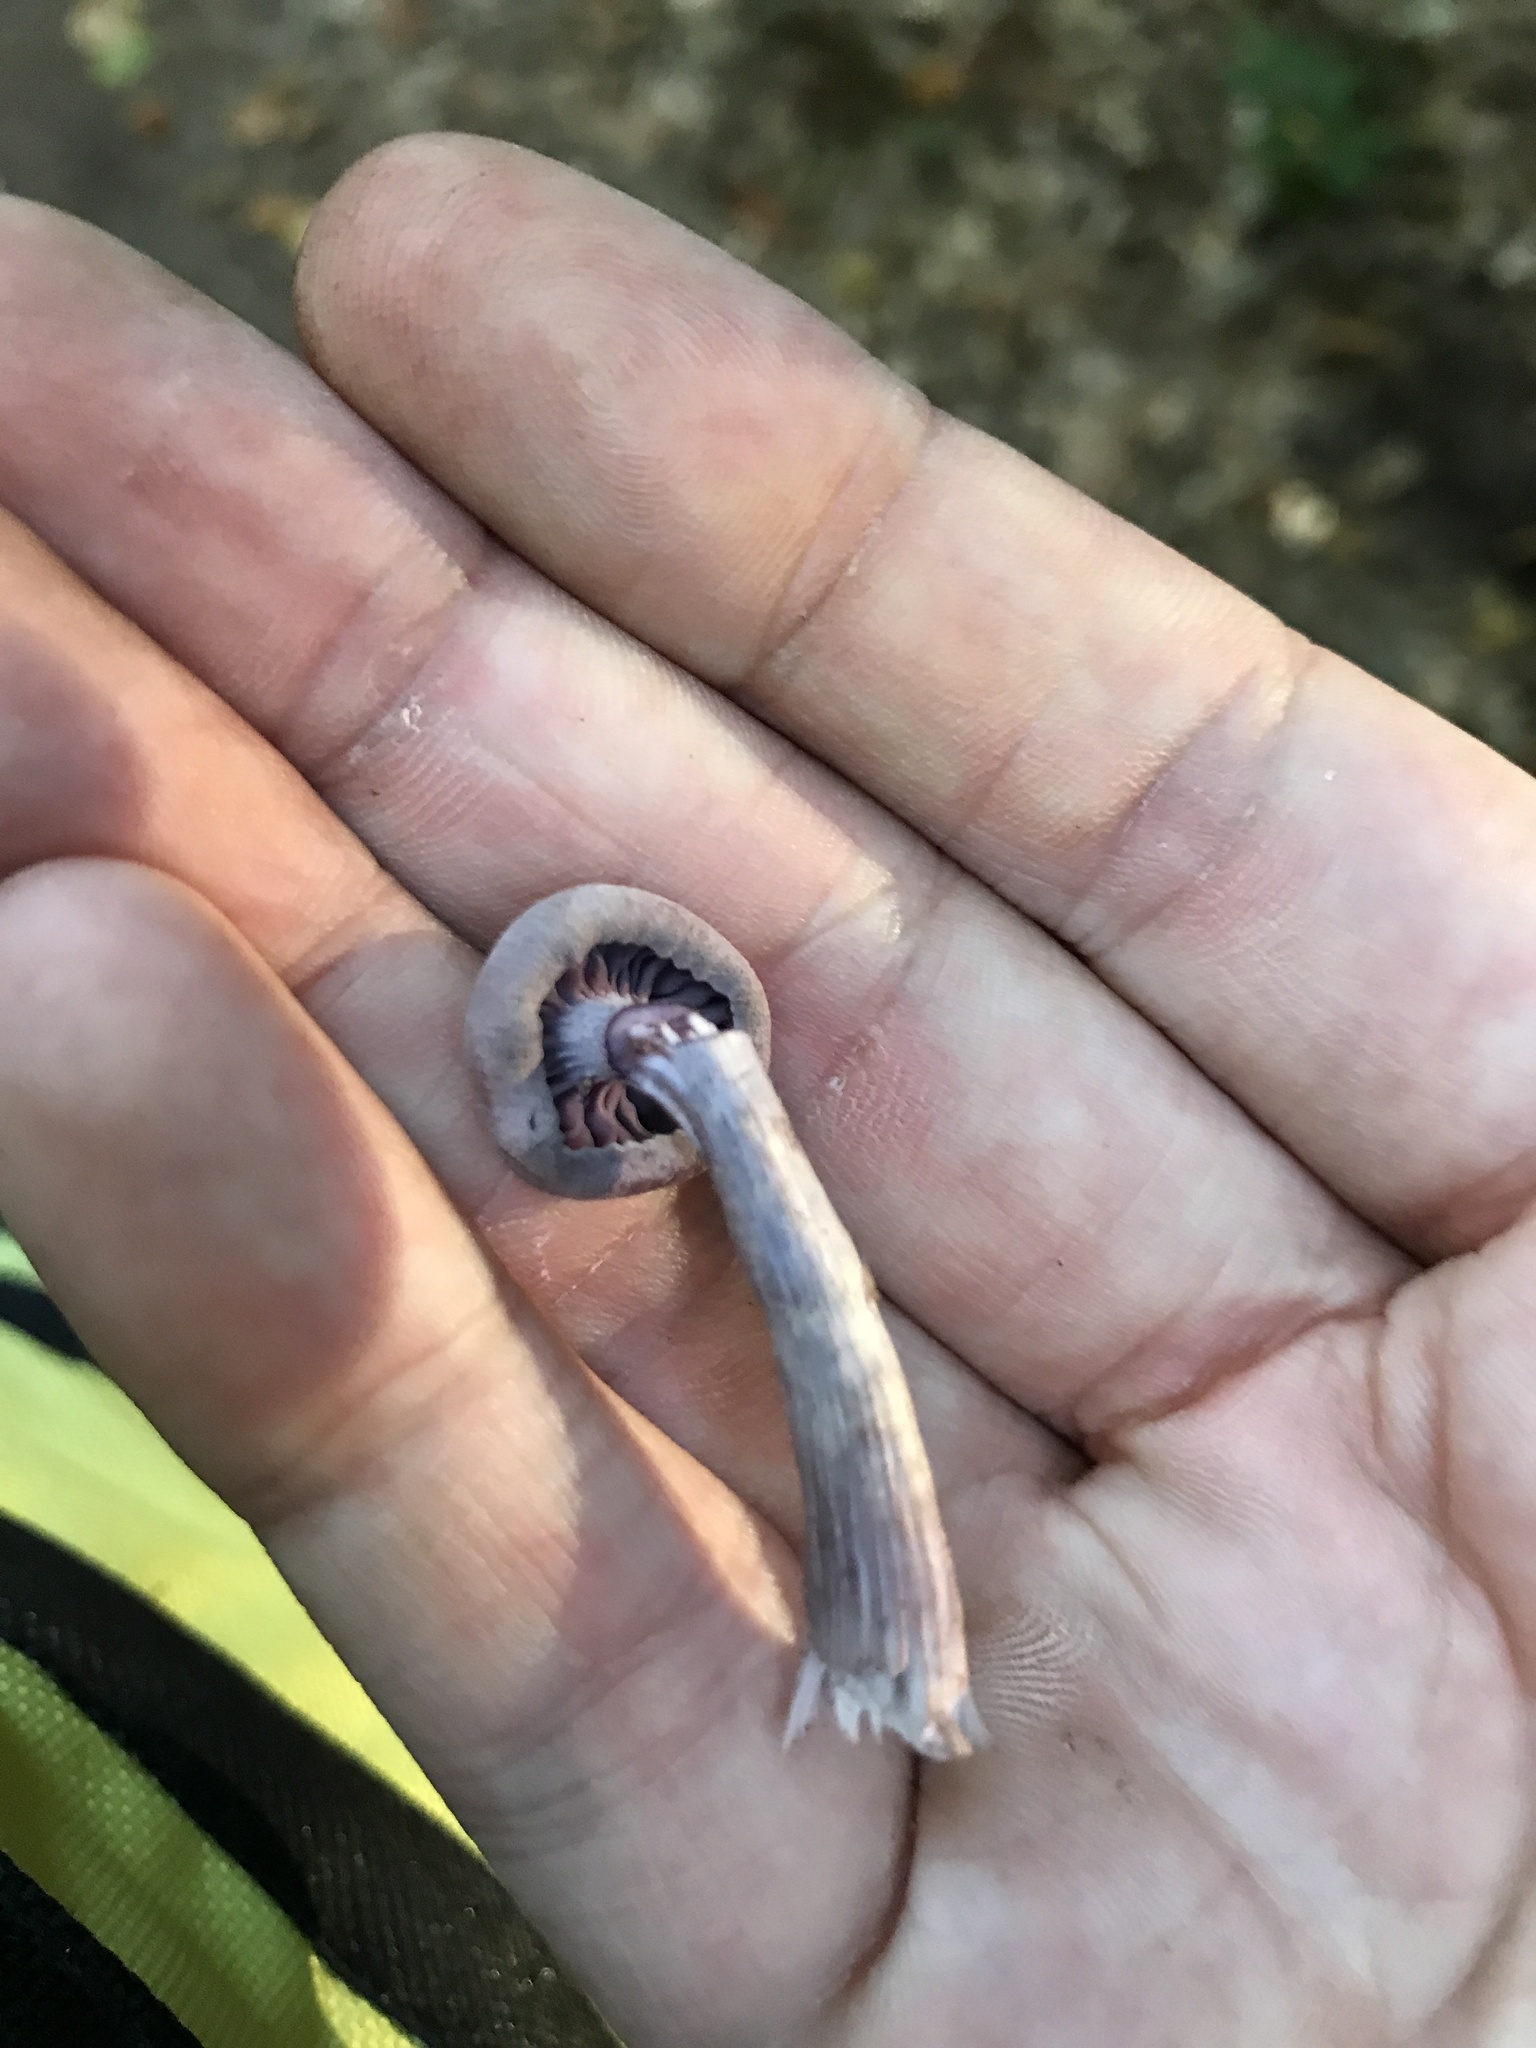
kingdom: Fungi
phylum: Basidiomycota
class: Agaricomycetes
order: Agaricales
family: Hydnangiaceae
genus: Laccaria
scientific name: Laccaria amethystina
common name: Amethyst deceiver
